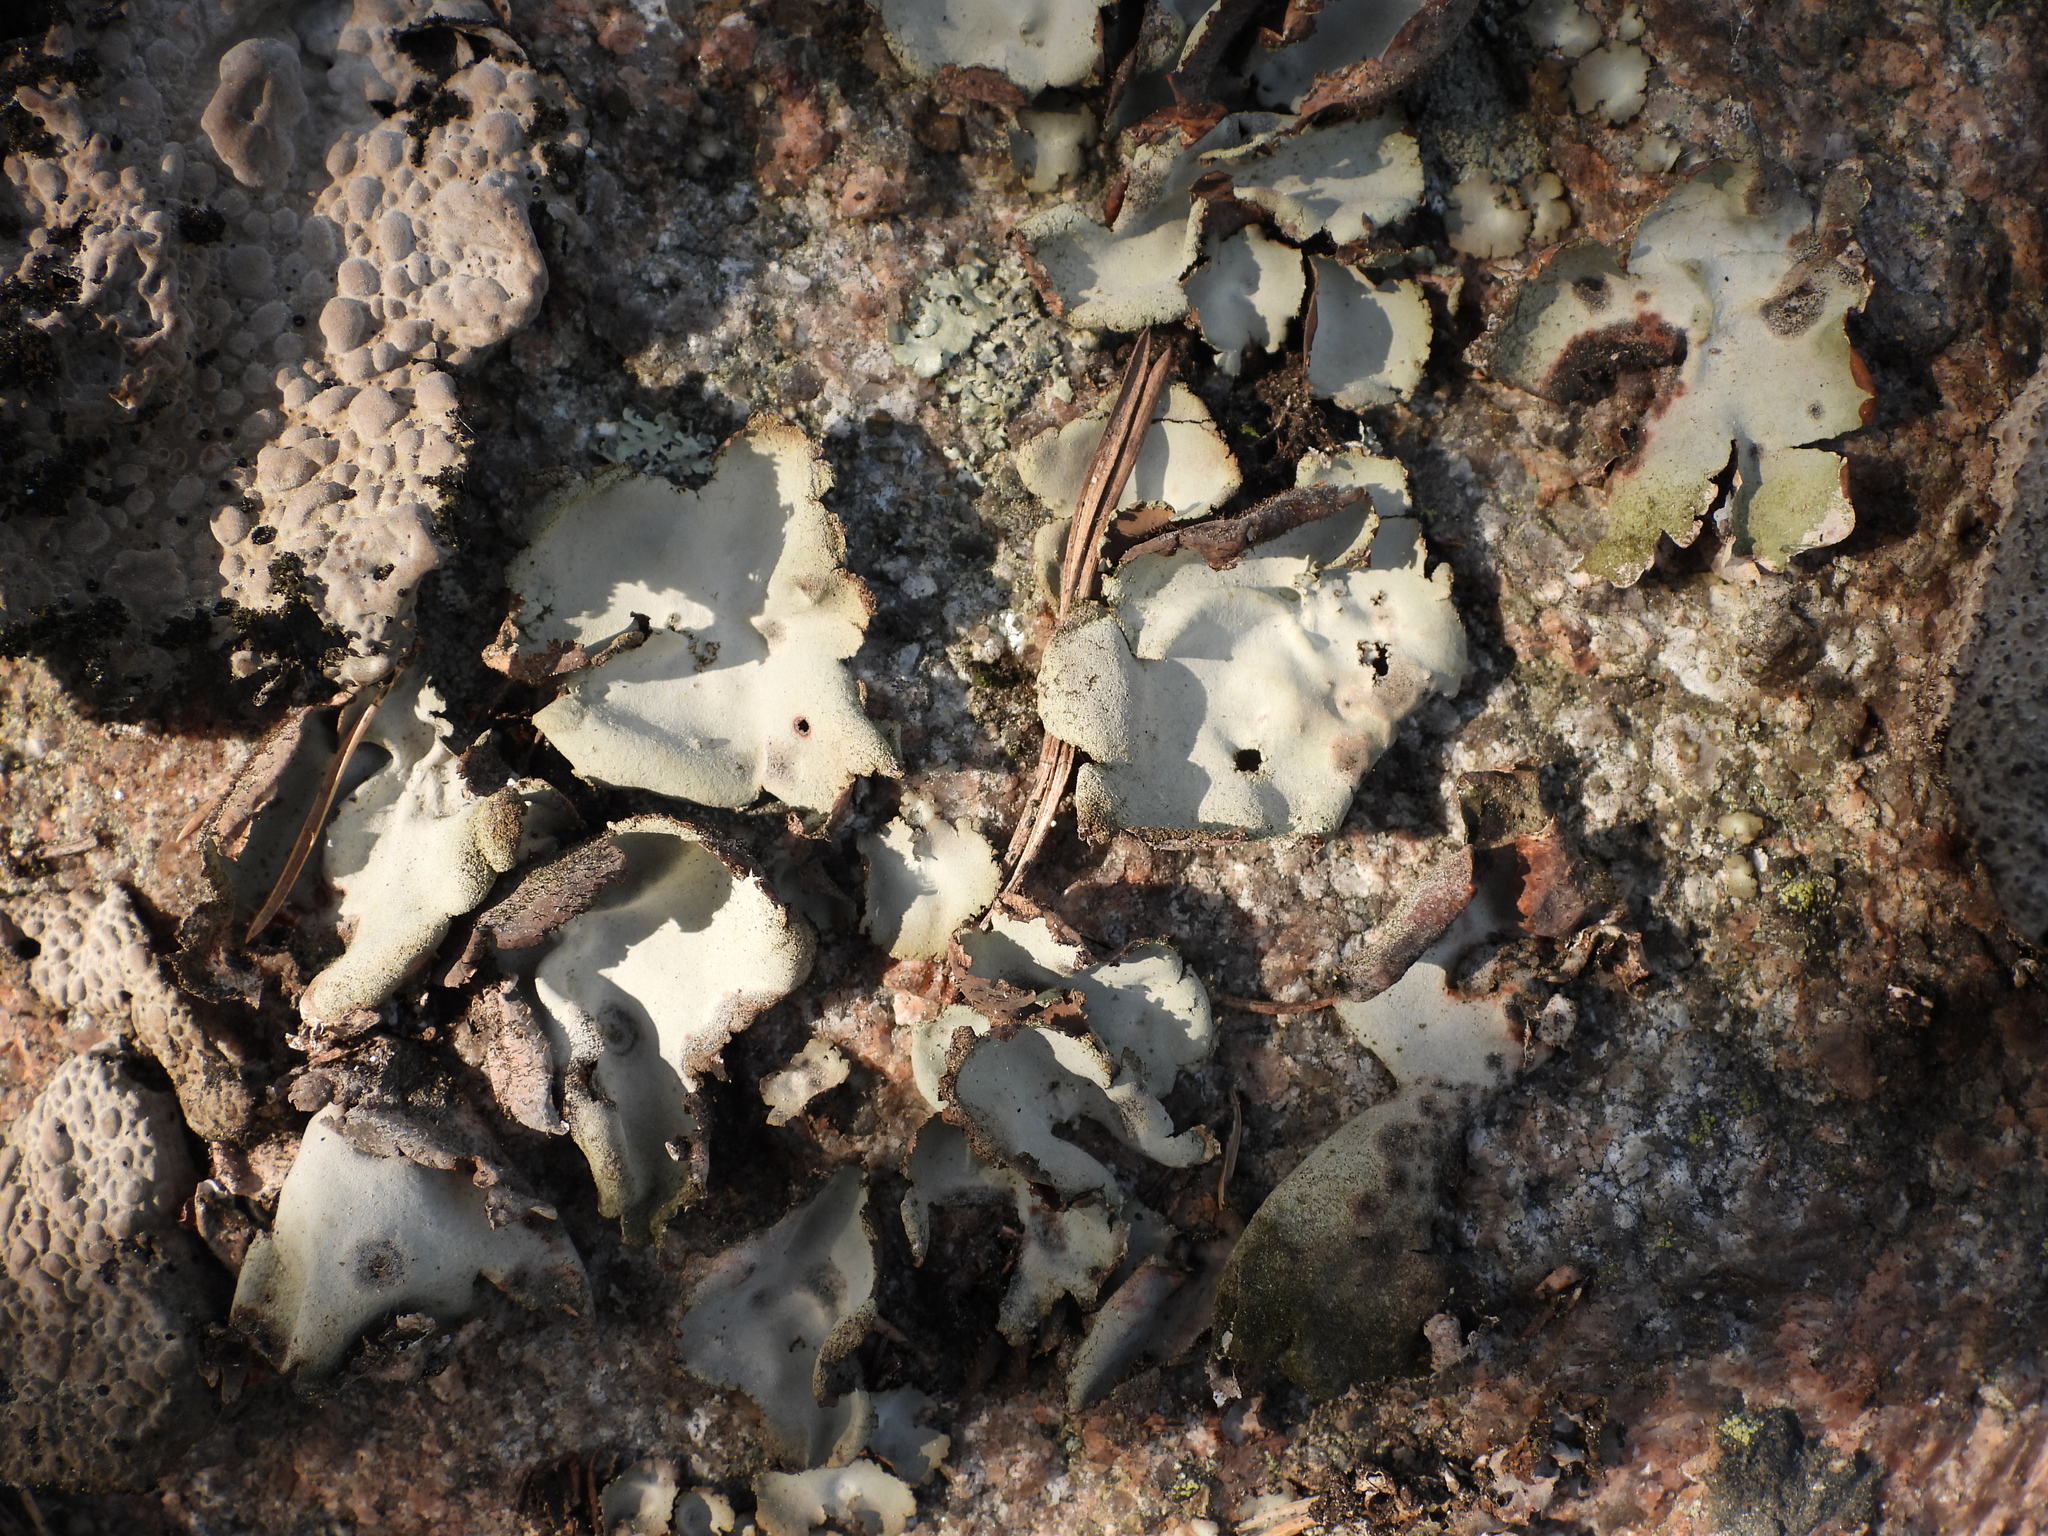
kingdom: Fungi
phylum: Ascomycota
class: Lecanoromycetes
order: Umbilicariales
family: Umbilicariaceae
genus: Umbilicaria
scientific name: Umbilicaria hirsuta
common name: Granulating rocktripe lichen
